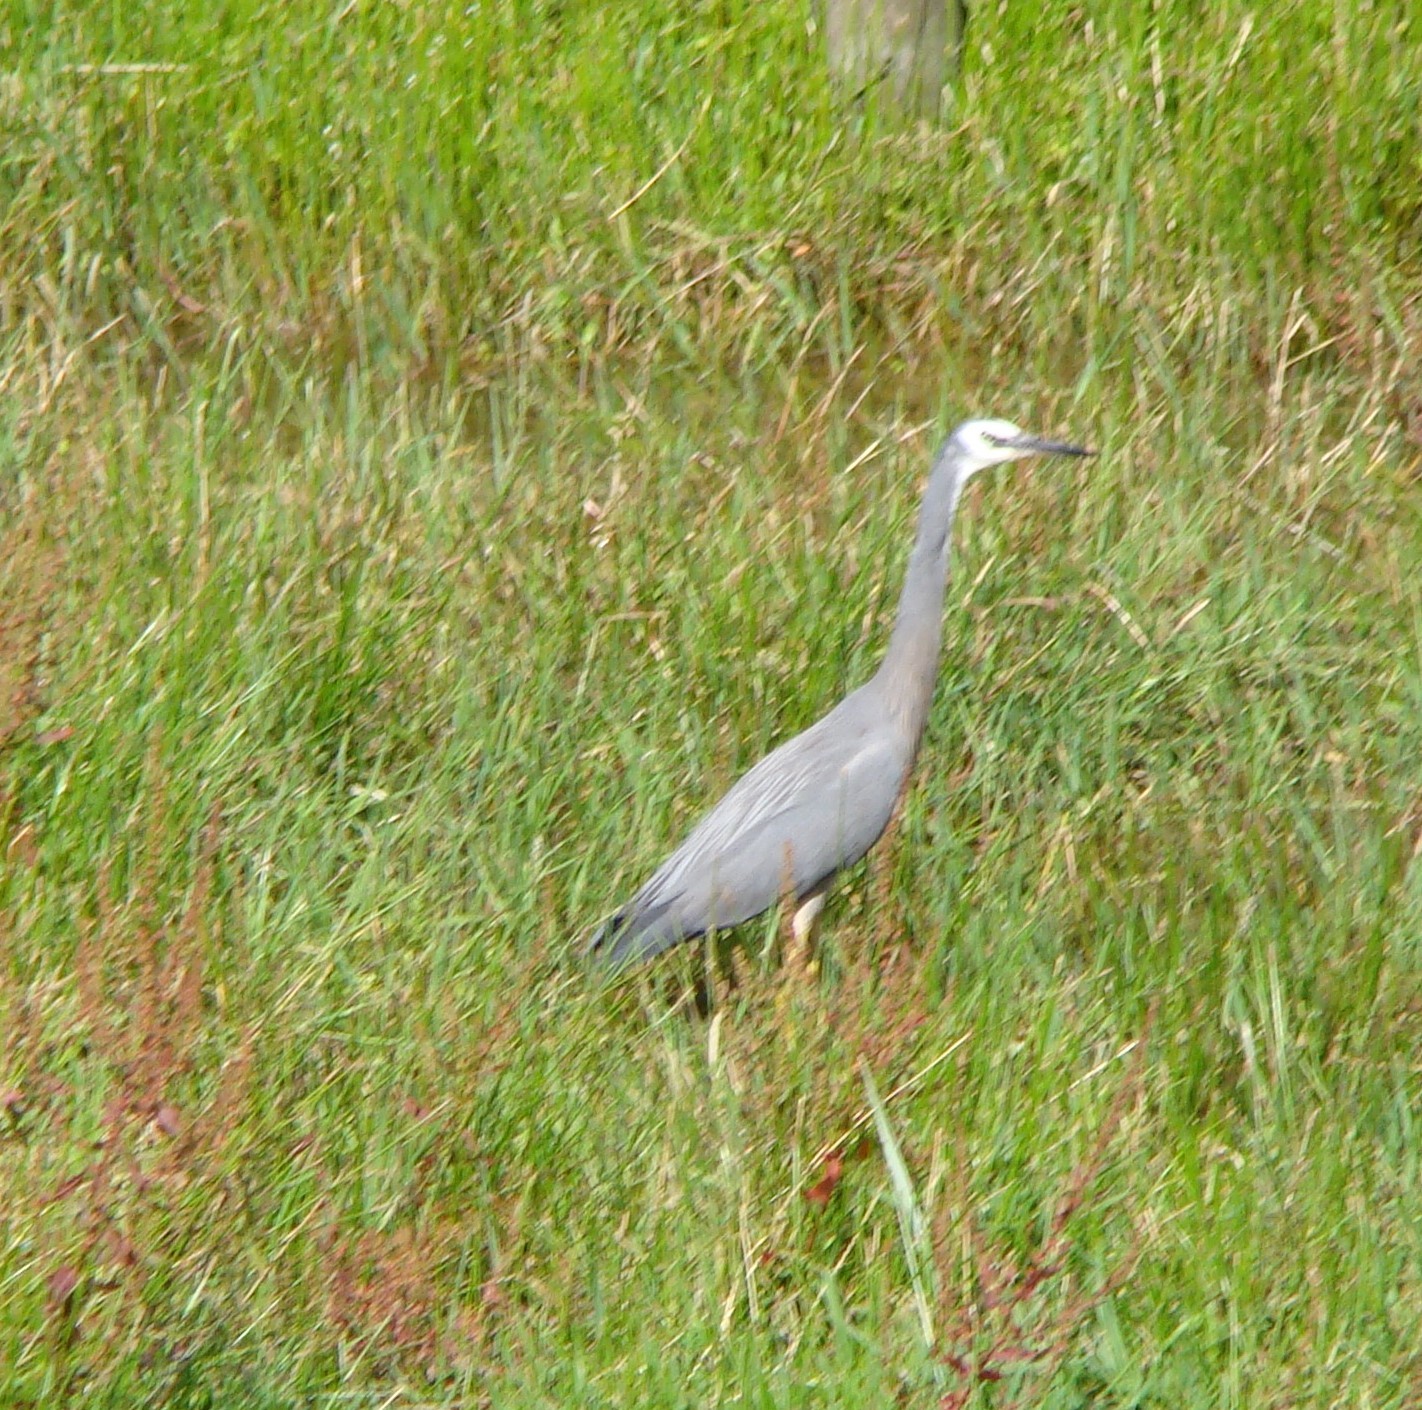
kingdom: Animalia
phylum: Chordata
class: Aves
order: Pelecaniformes
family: Ardeidae
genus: Egretta
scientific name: Egretta novaehollandiae
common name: White-faced heron
